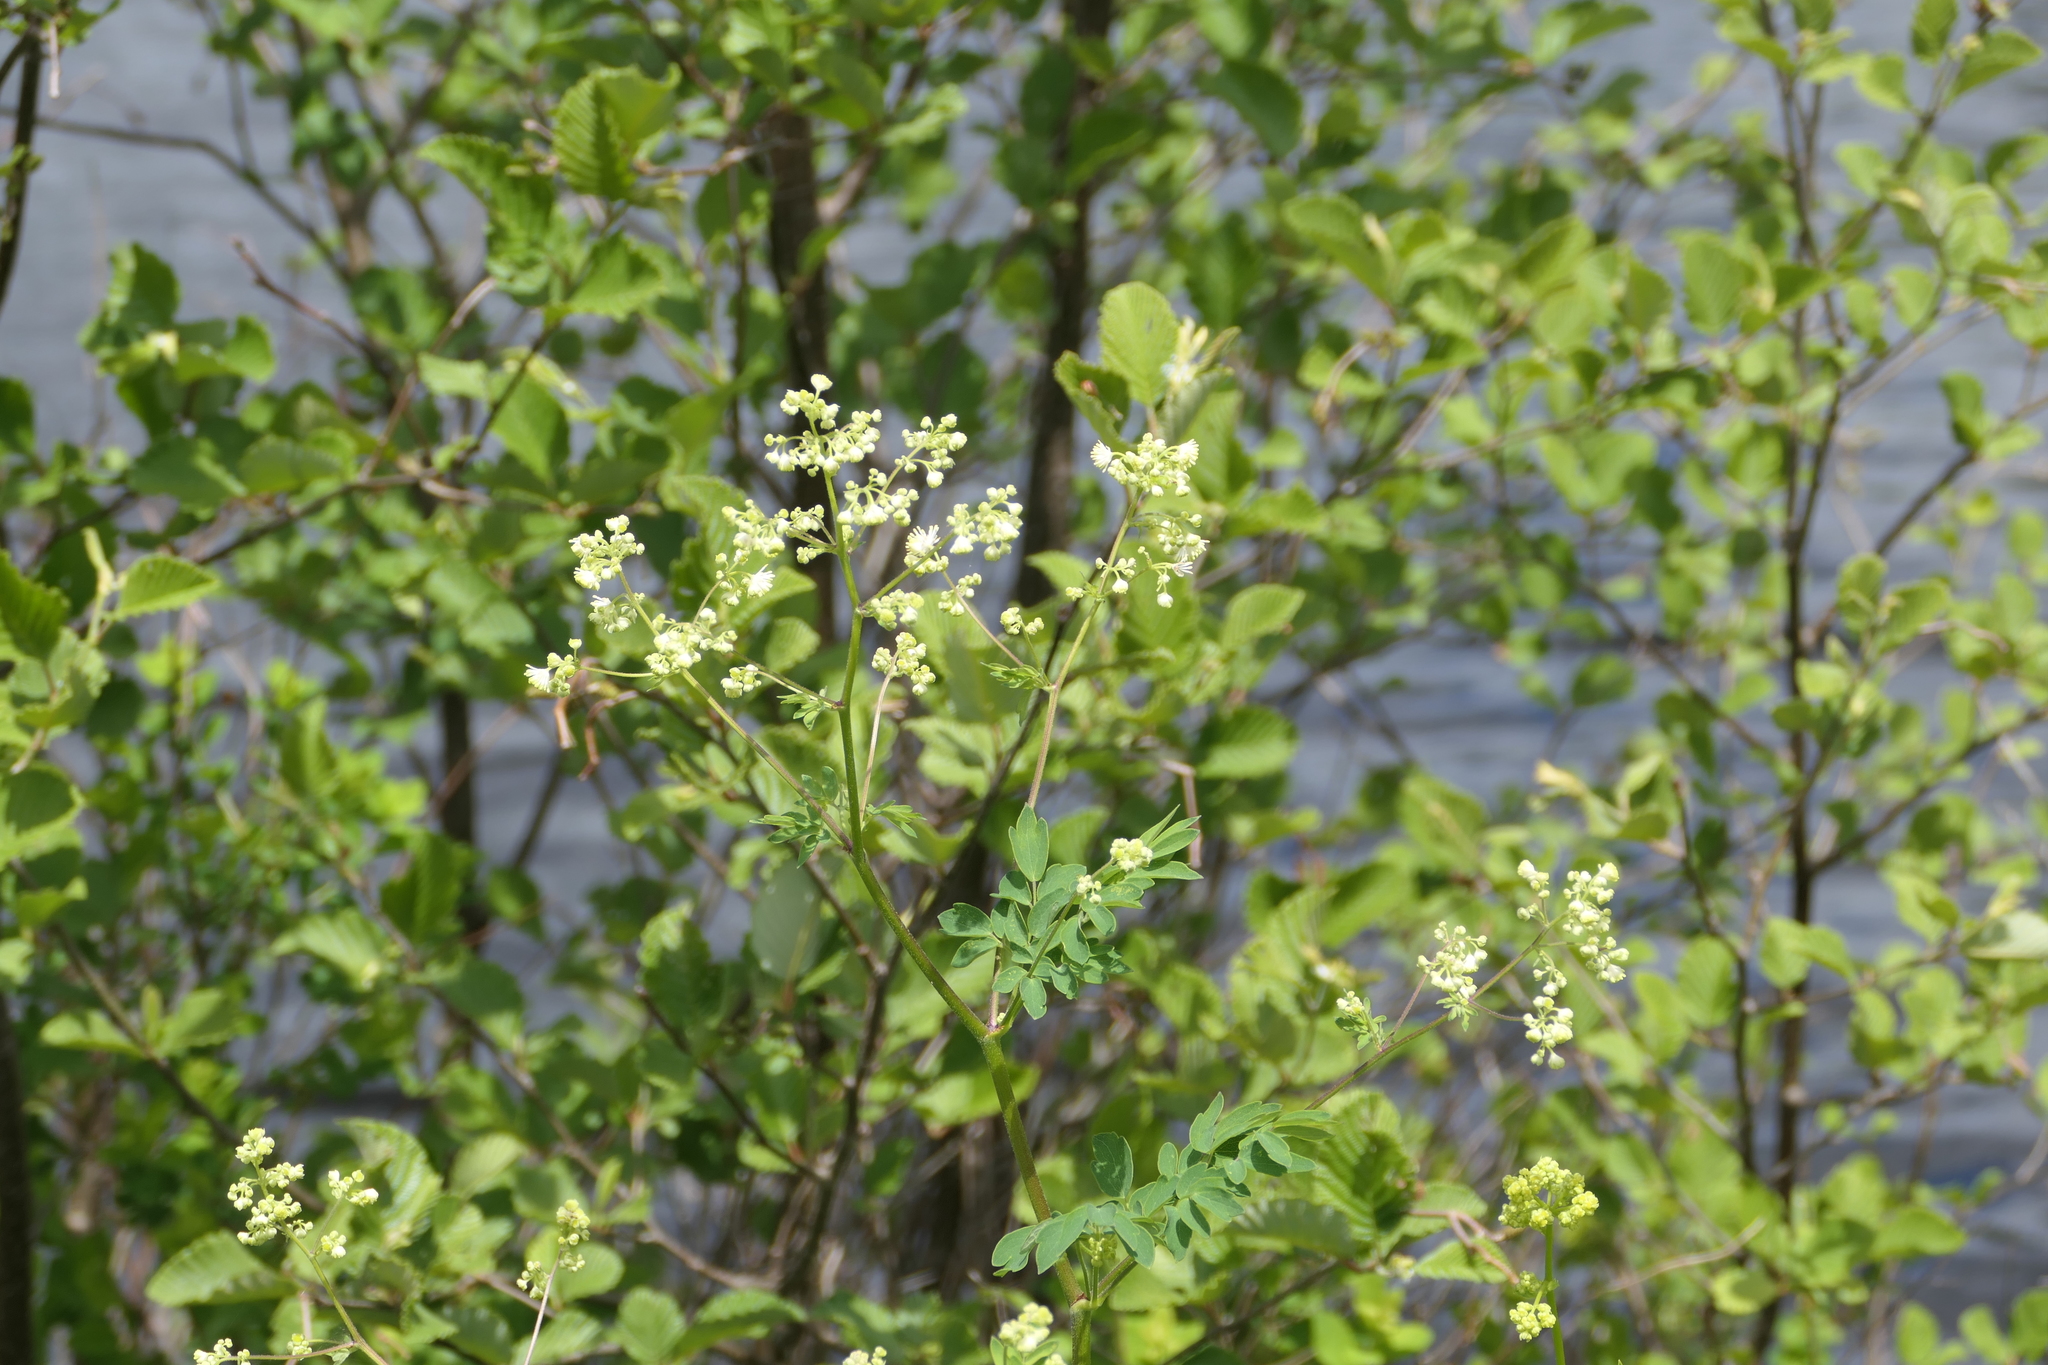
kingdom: Plantae
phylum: Tracheophyta
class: Magnoliopsida
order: Ranunculales
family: Ranunculaceae
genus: Thalictrum
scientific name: Thalictrum pubescens
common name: King-of-the-meadow
